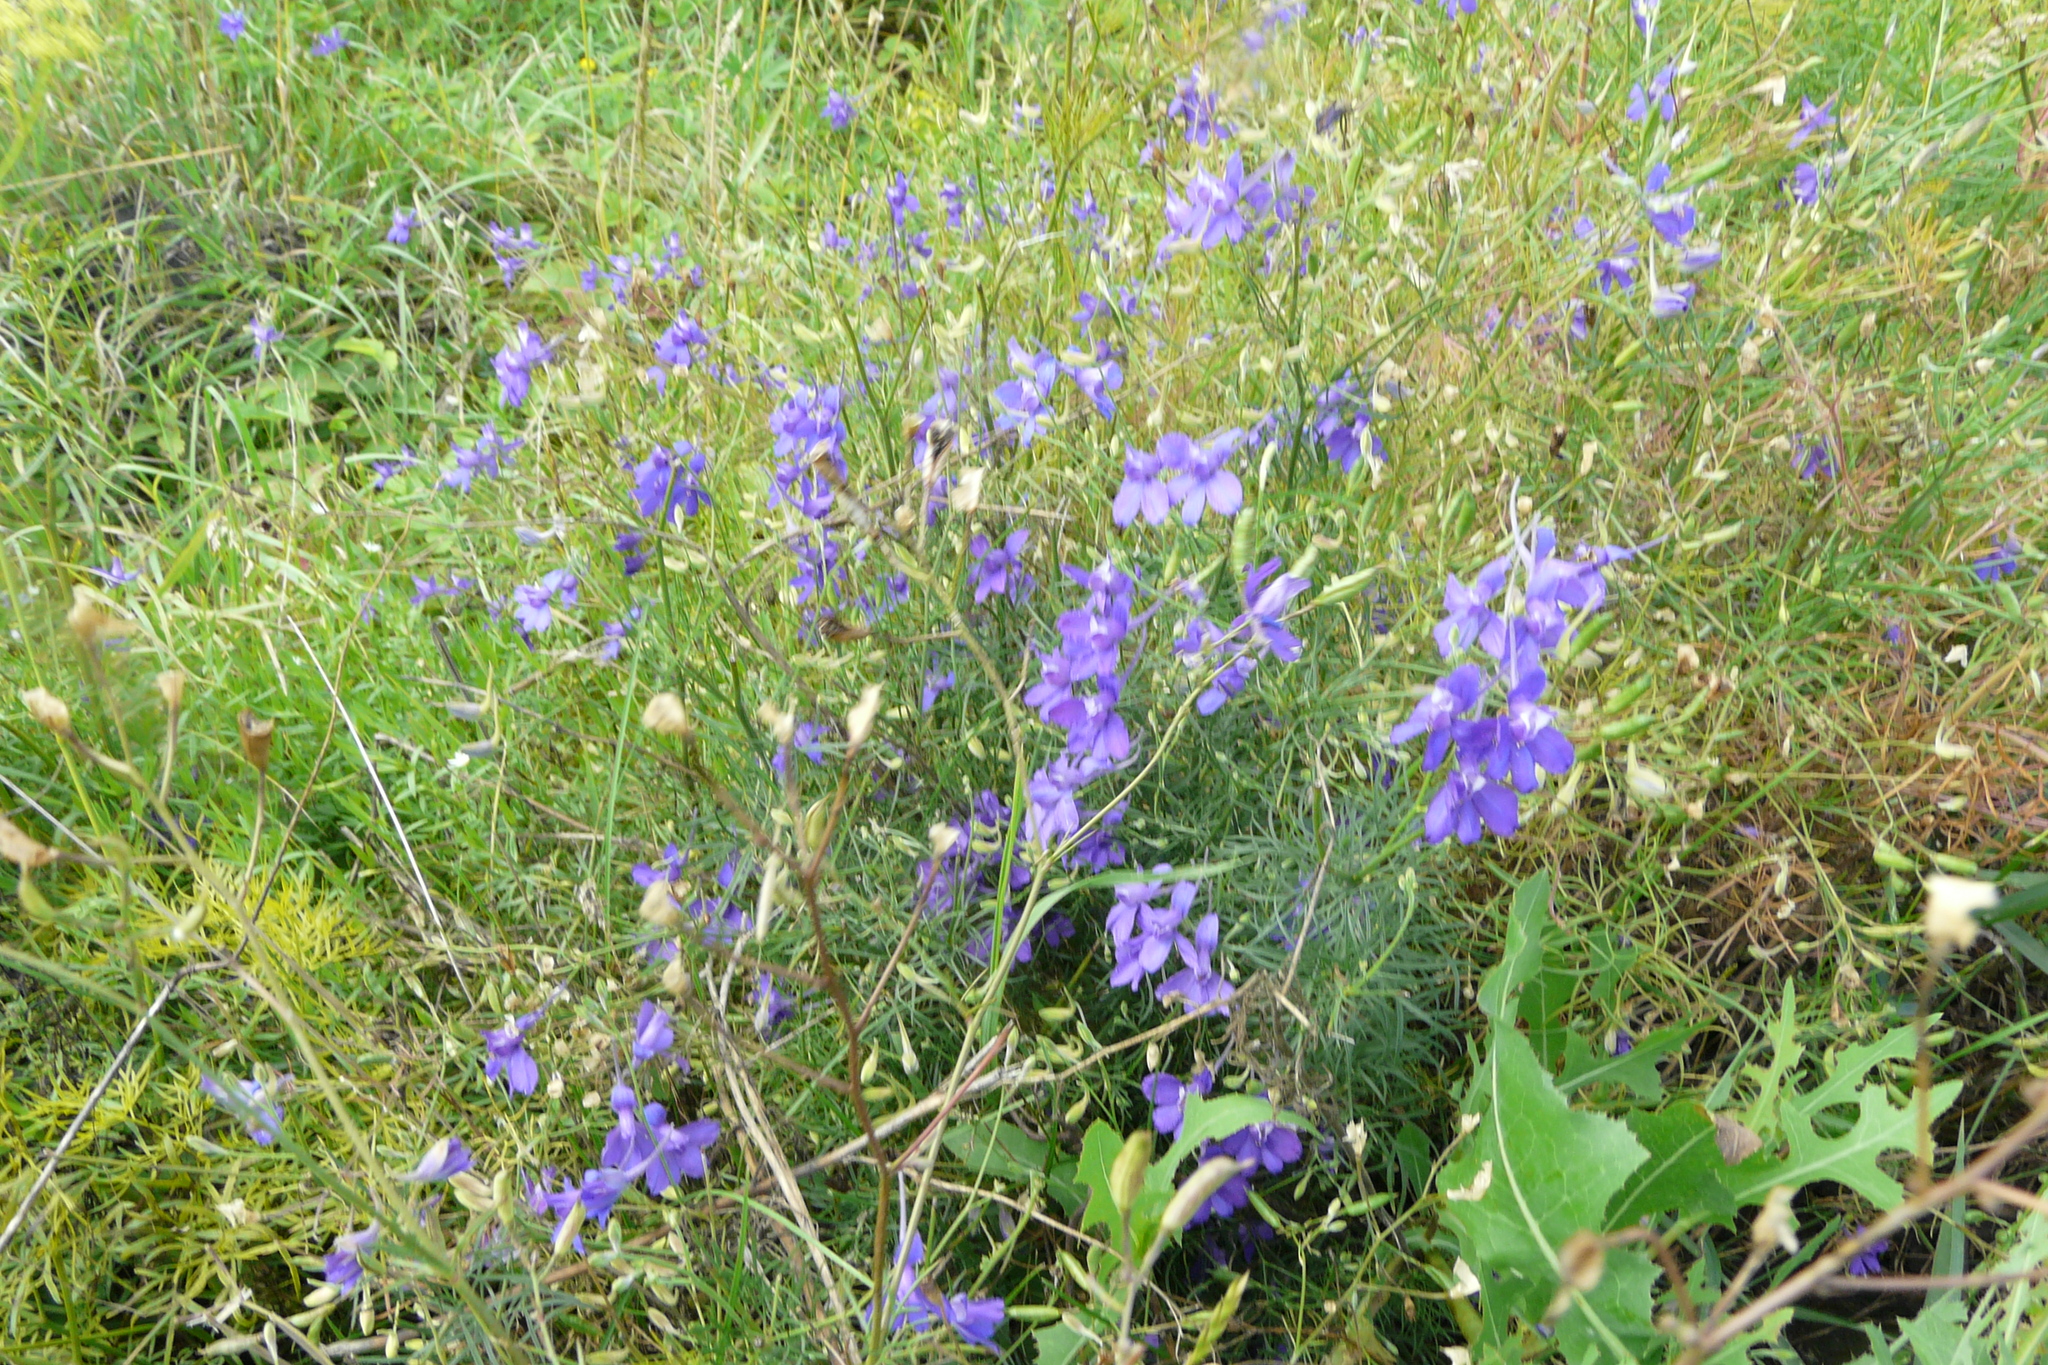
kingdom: Plantae
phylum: Tracheophyta
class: Magnoliopsida
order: Ranunculales
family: Ranunculaceae
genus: Delphinium
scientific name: Delphinium consolida
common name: Branching larkspur
